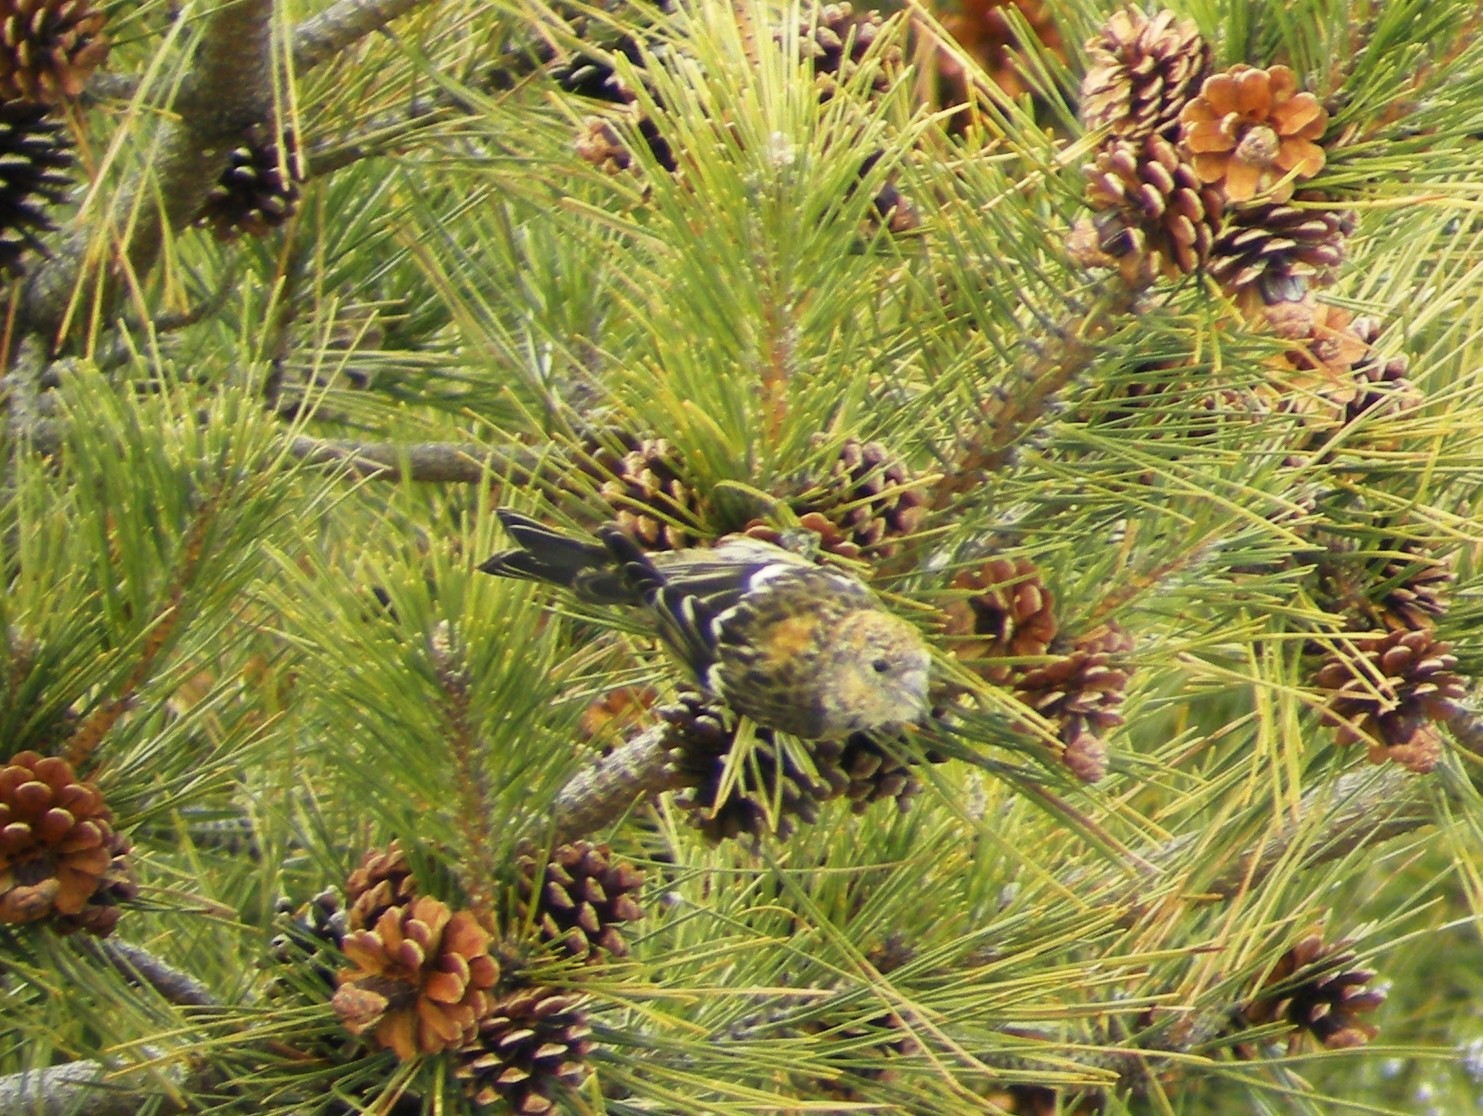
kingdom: Animalia
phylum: Chordata
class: Aves
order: Passeriformes
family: Fringillidae
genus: Loxia
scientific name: Loxia leucoptera
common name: Two-barred crossbill
